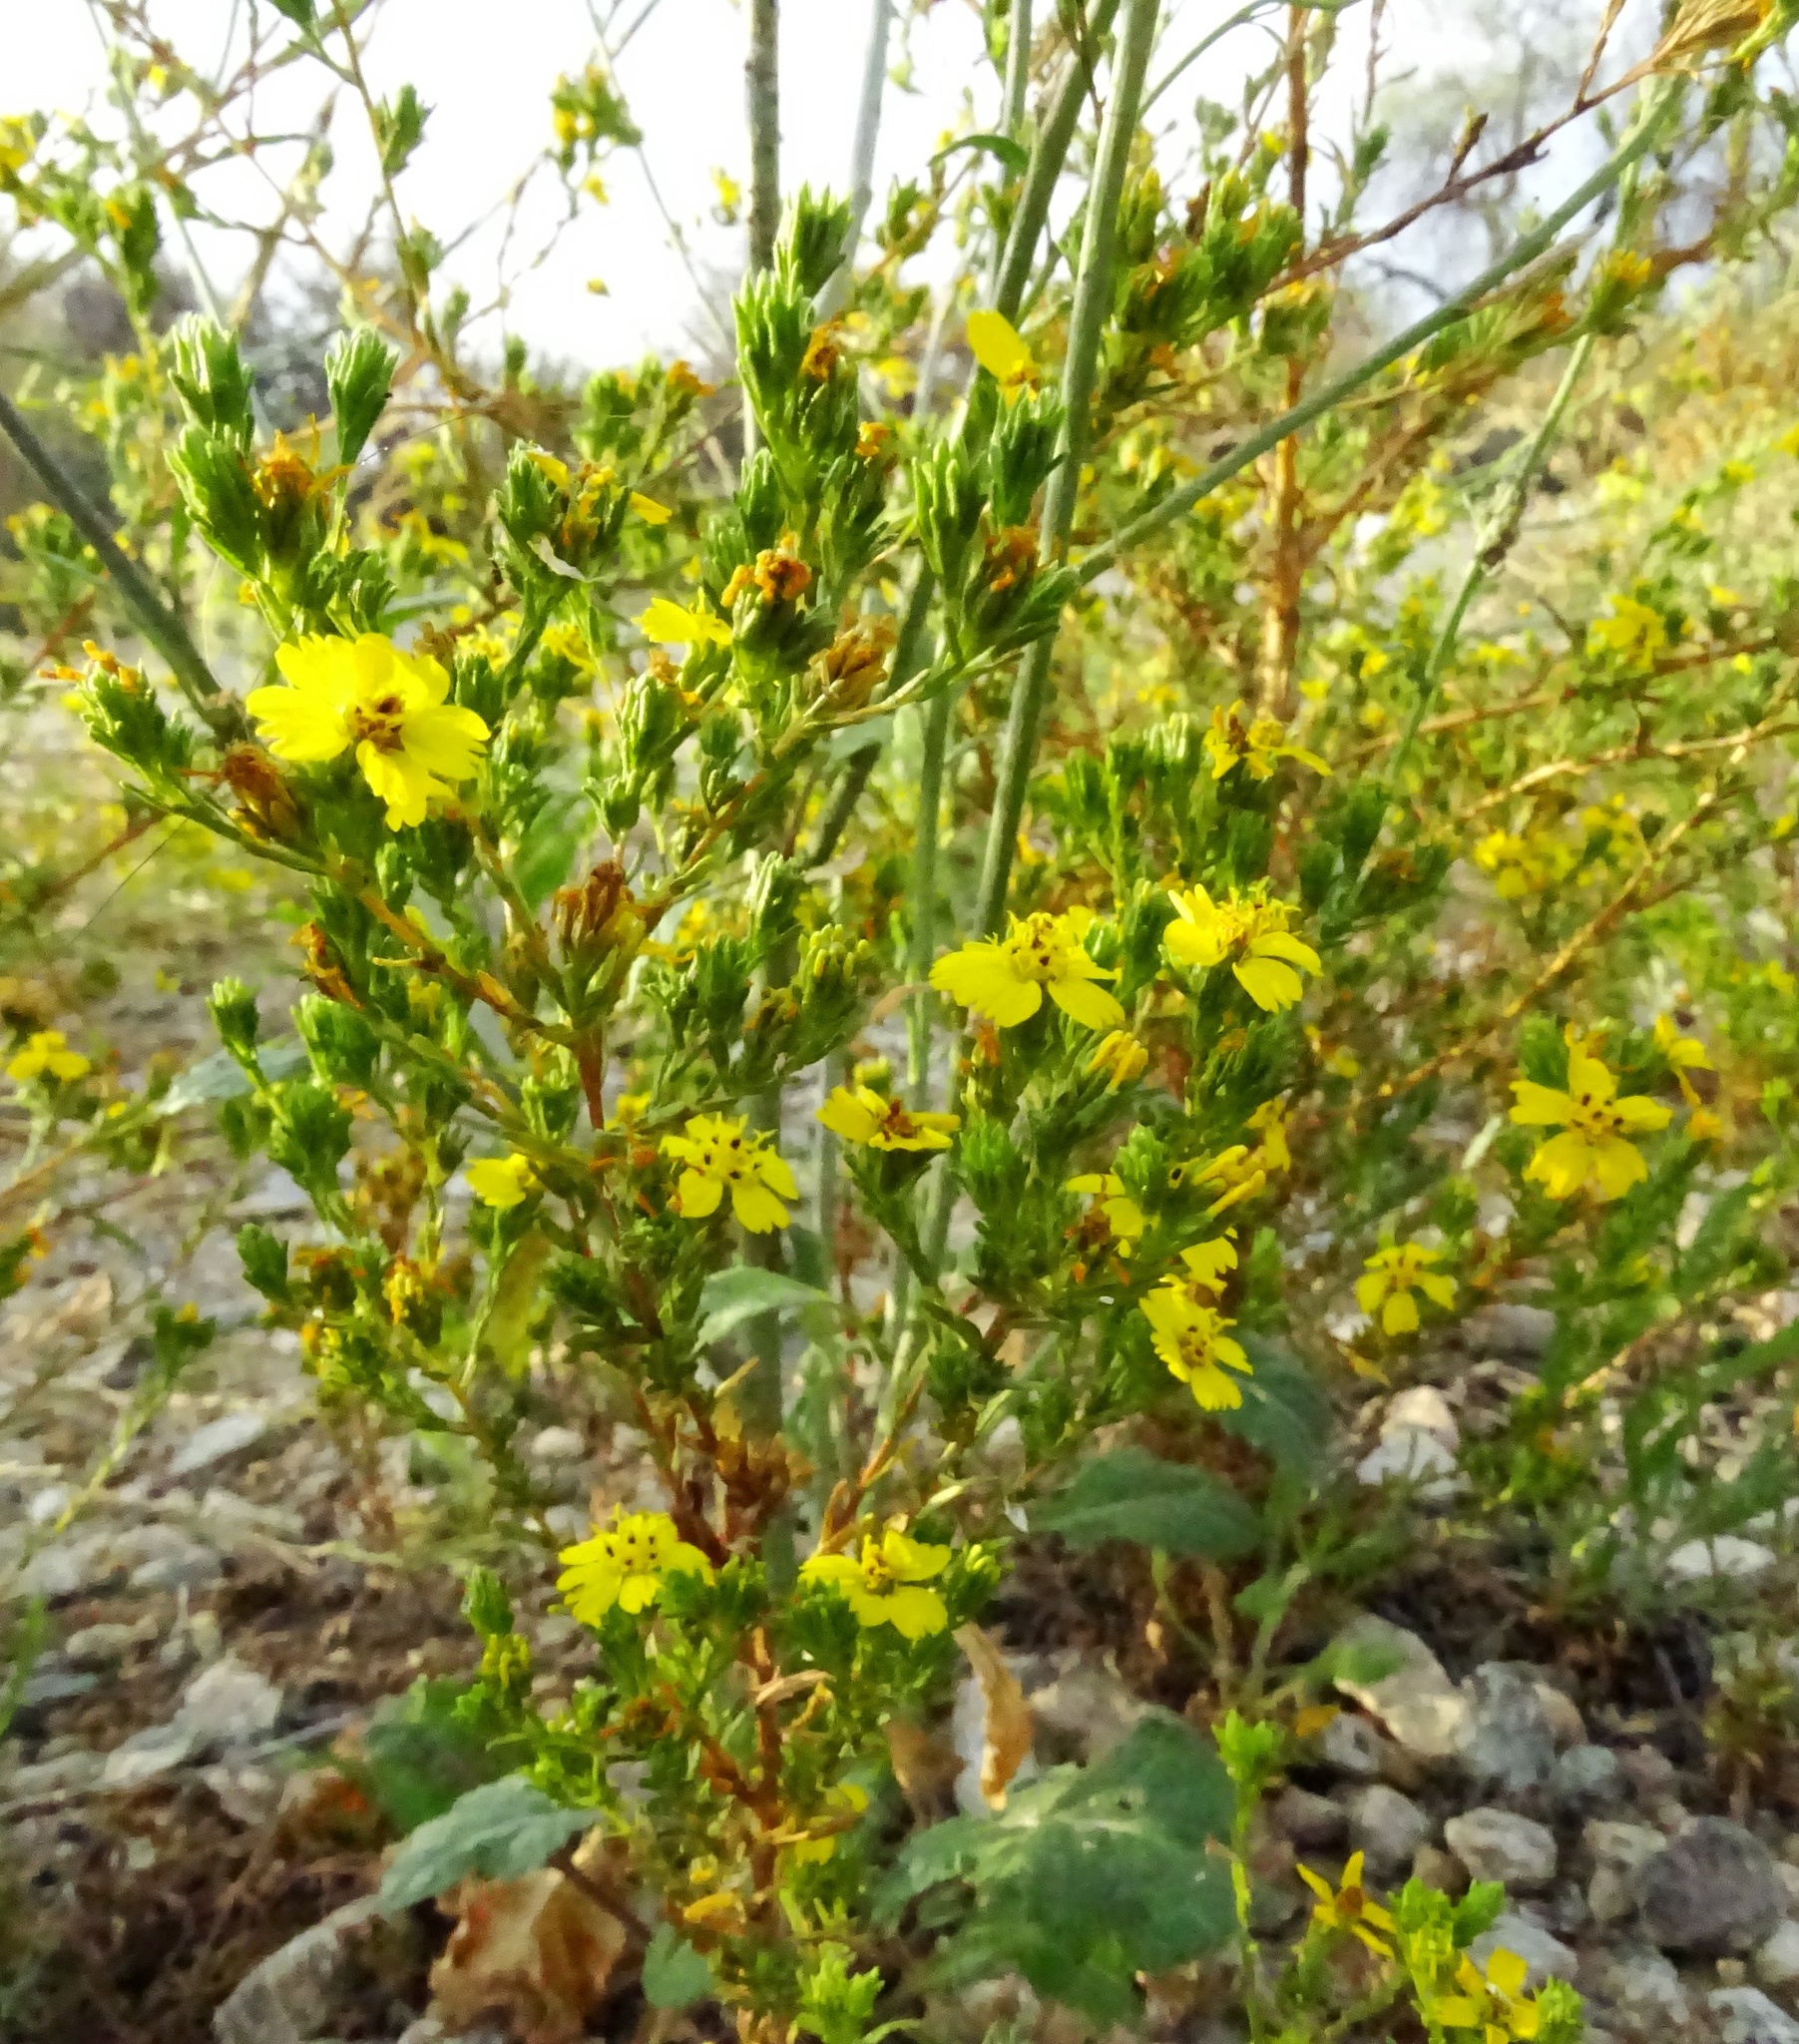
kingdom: Plantae
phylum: Tracheophyta
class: Magnoliopsida
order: Asterales
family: Asteraceae
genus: Deinandra
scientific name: Deinandra fasciculata
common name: Clustered tarweed
